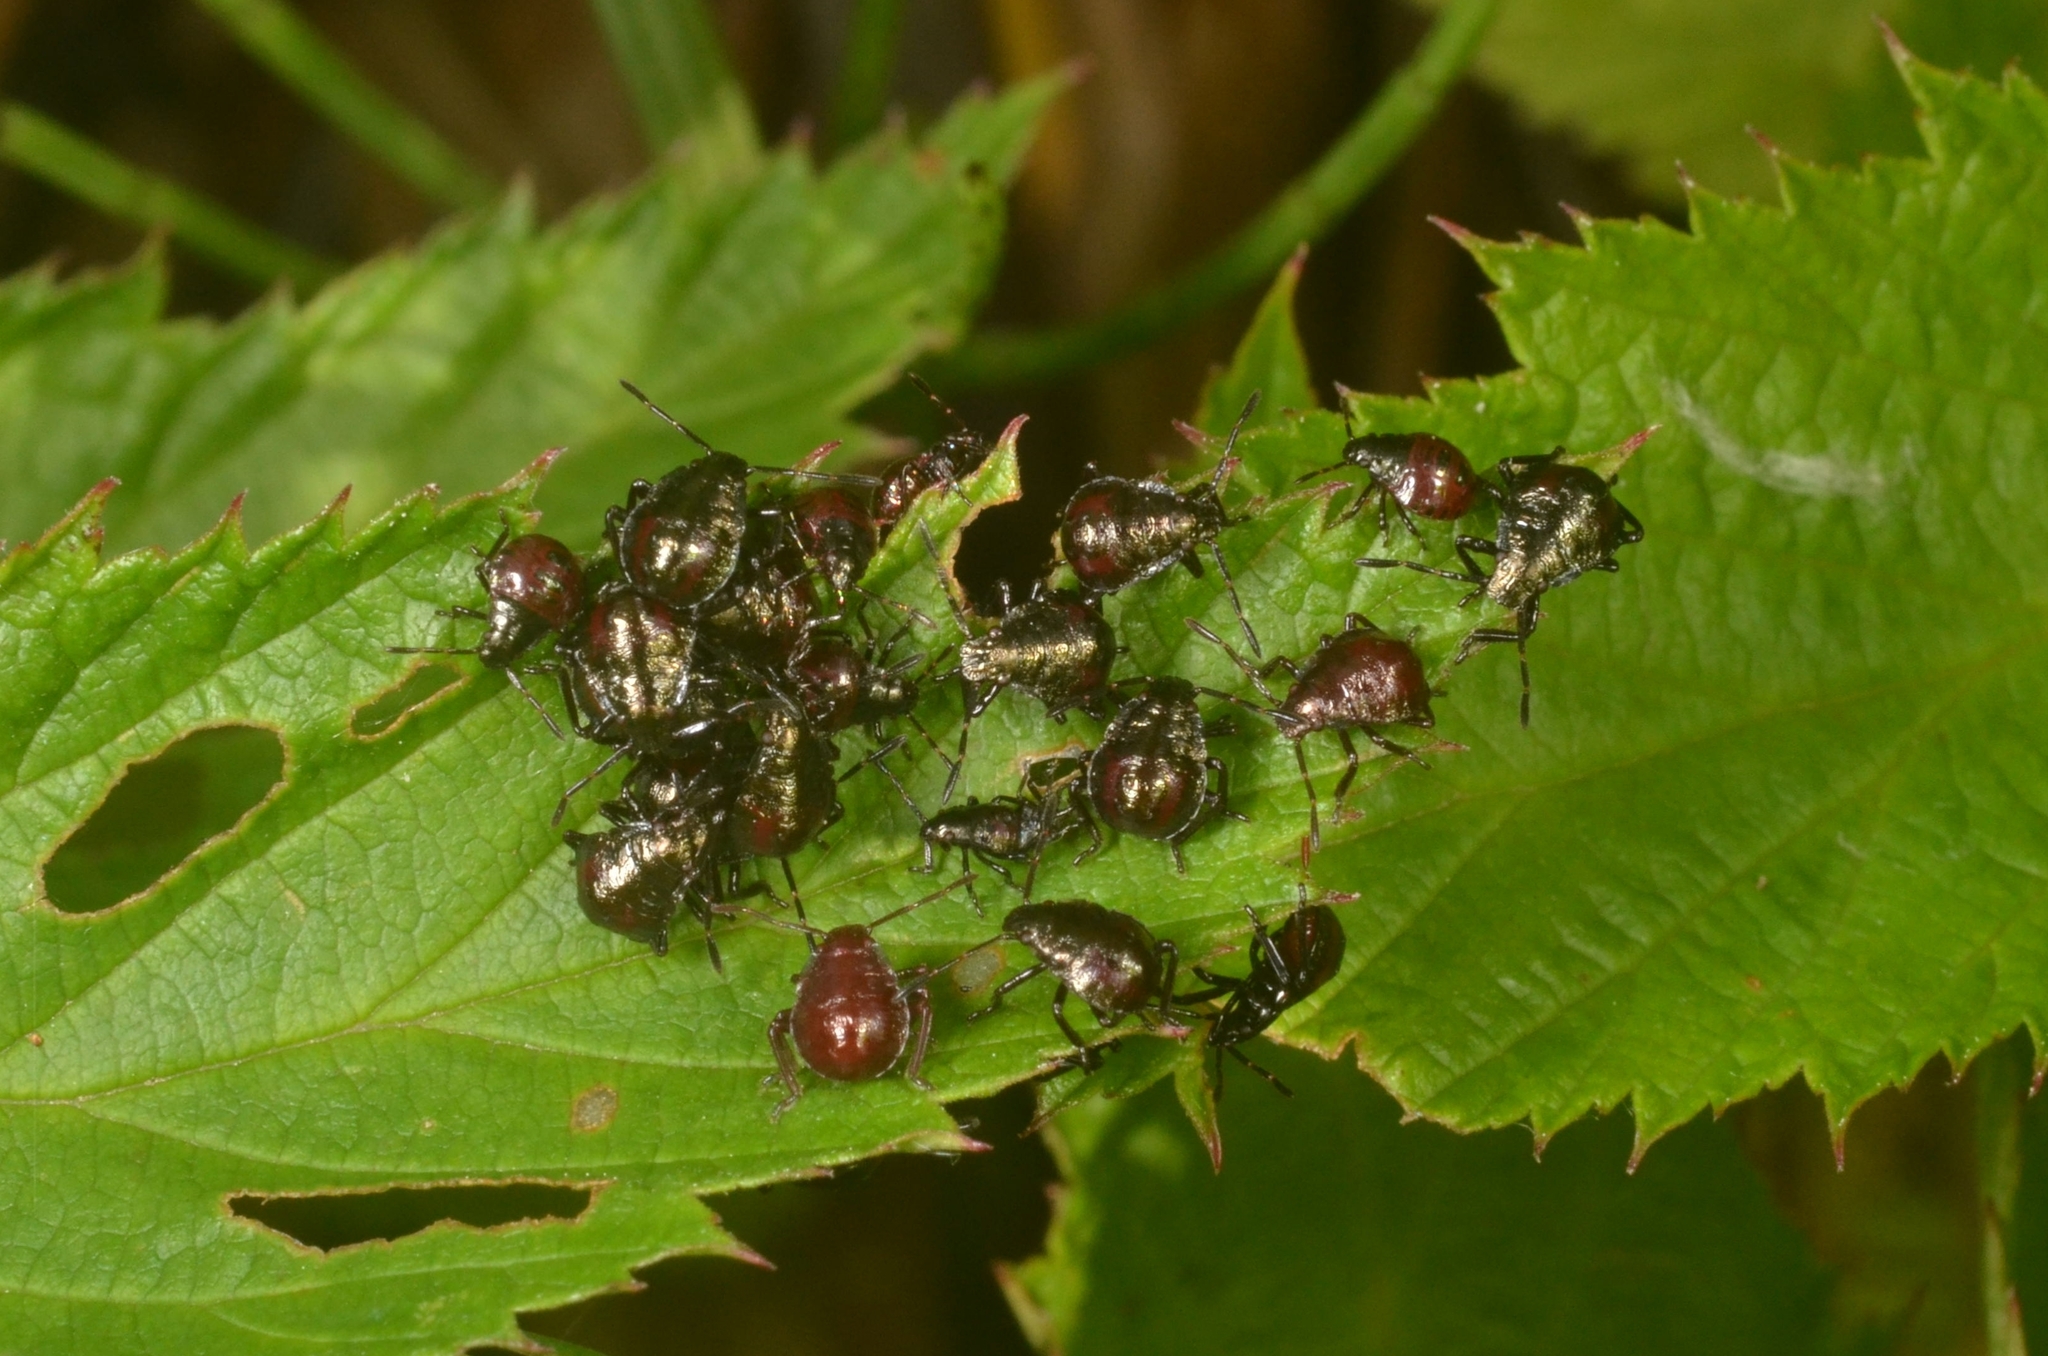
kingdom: Animalia
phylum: Arthropoda
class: Insecta
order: Hemiptera
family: Pentatomidae
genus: Picromerus
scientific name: Picromerus bidens
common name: Spiked shieldbug
